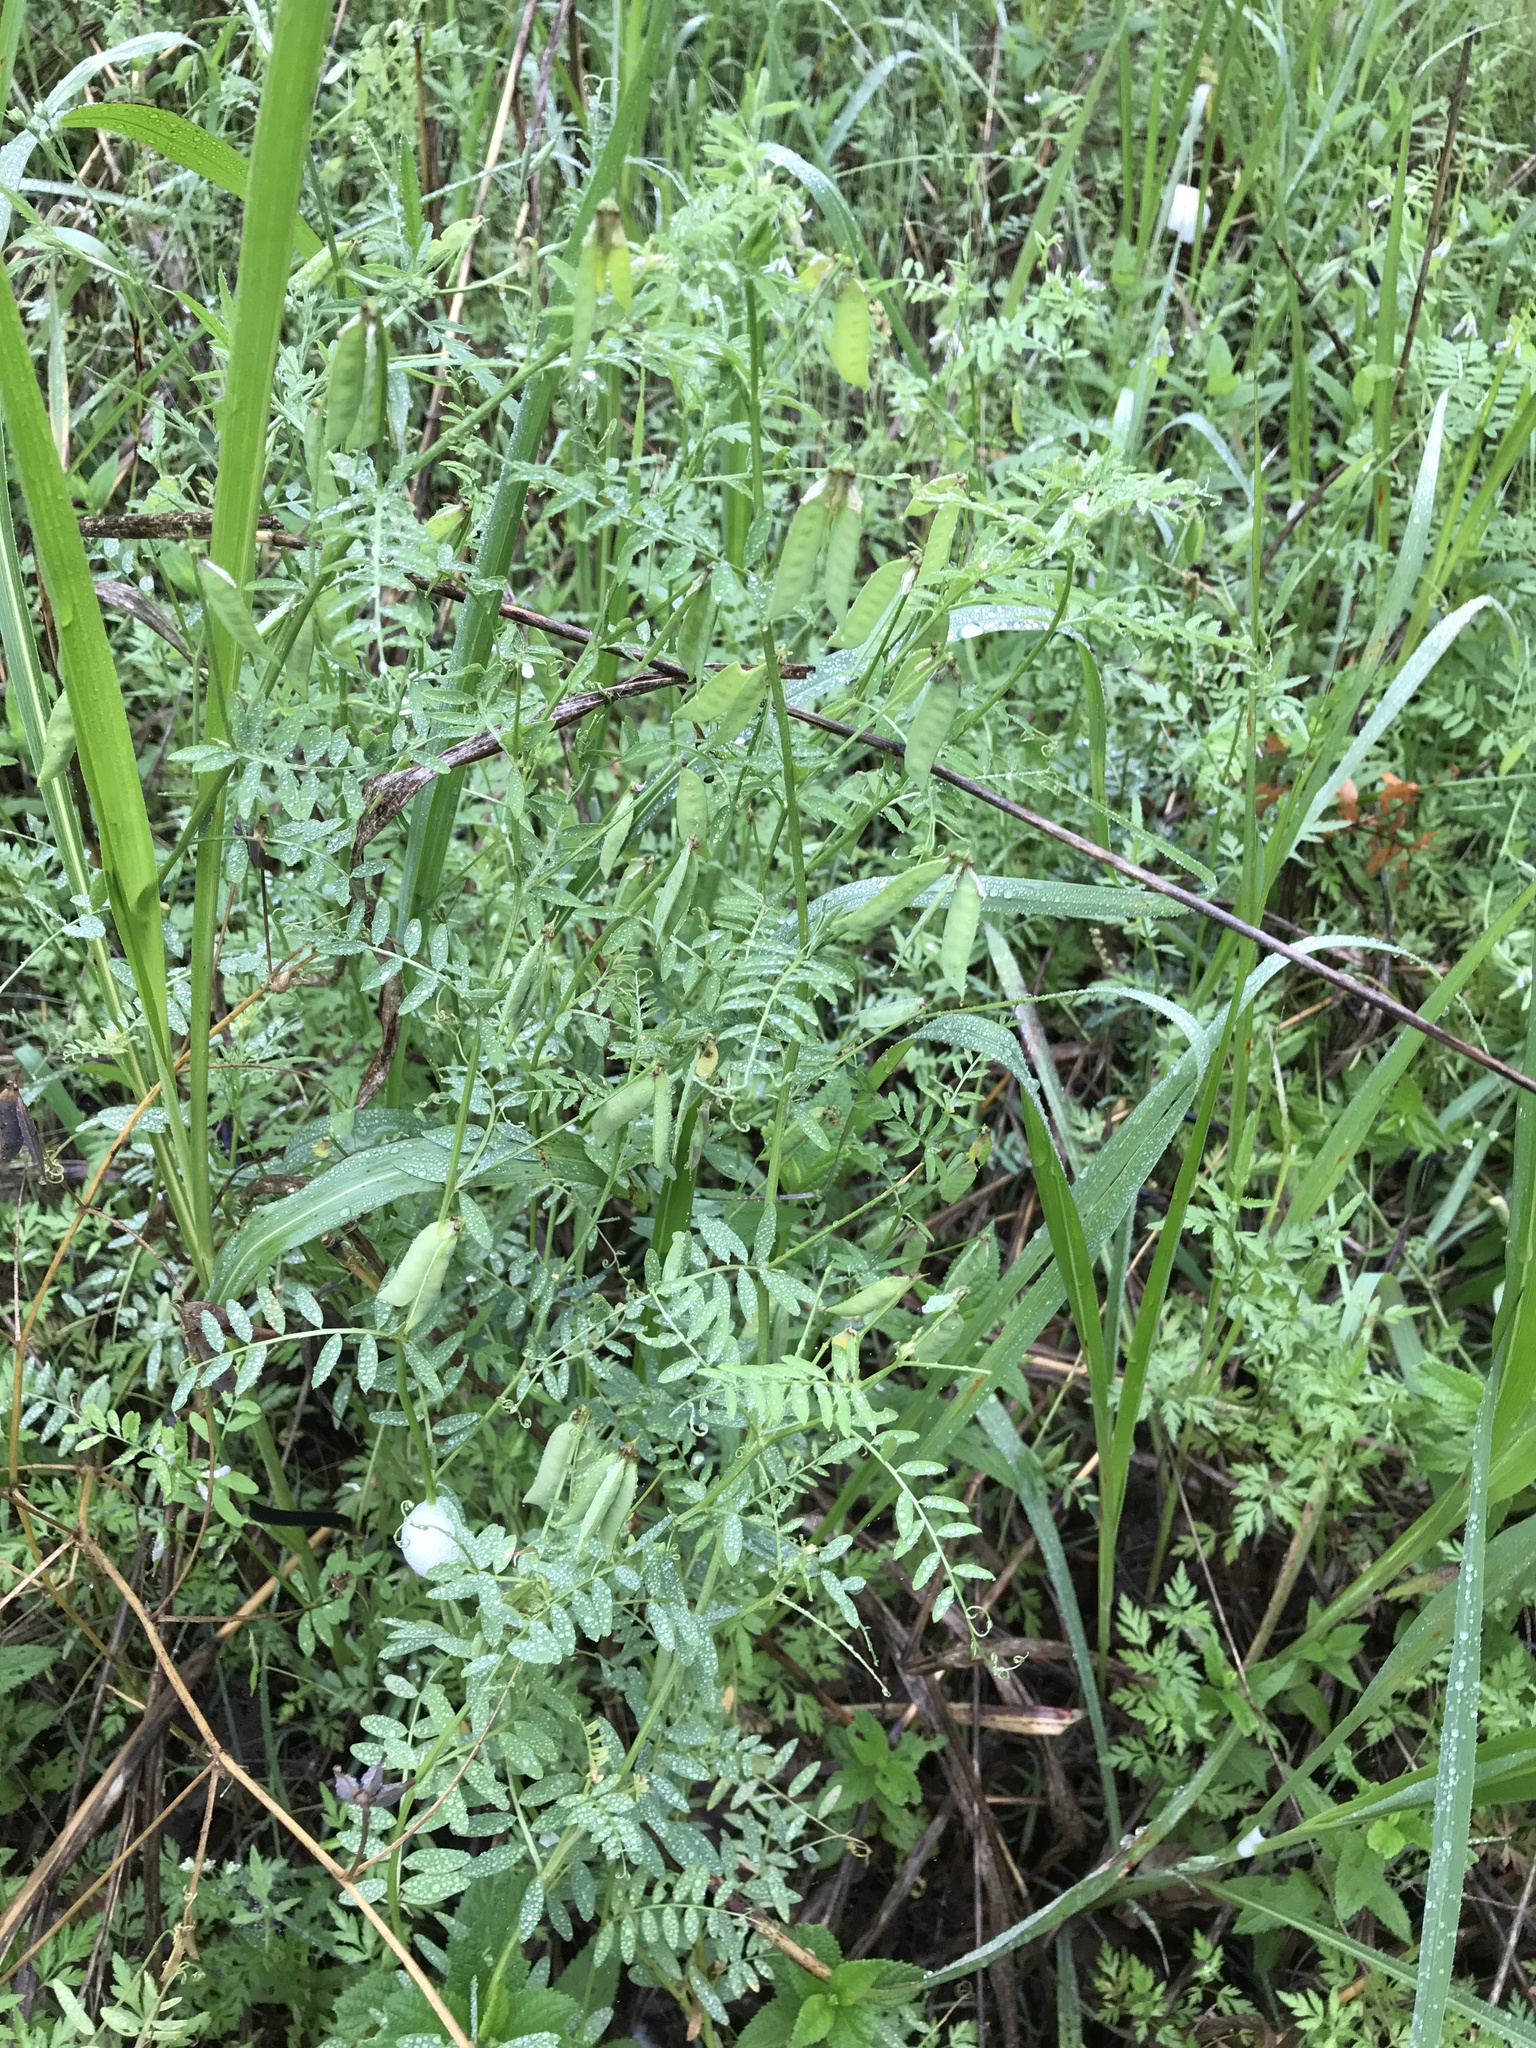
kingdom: Plantae
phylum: Tracheophyta
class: Magnoliopsida
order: Fabales
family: Fabaceae
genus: Vicia
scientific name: Vicia ludoviciana
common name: Louisiana vetch
